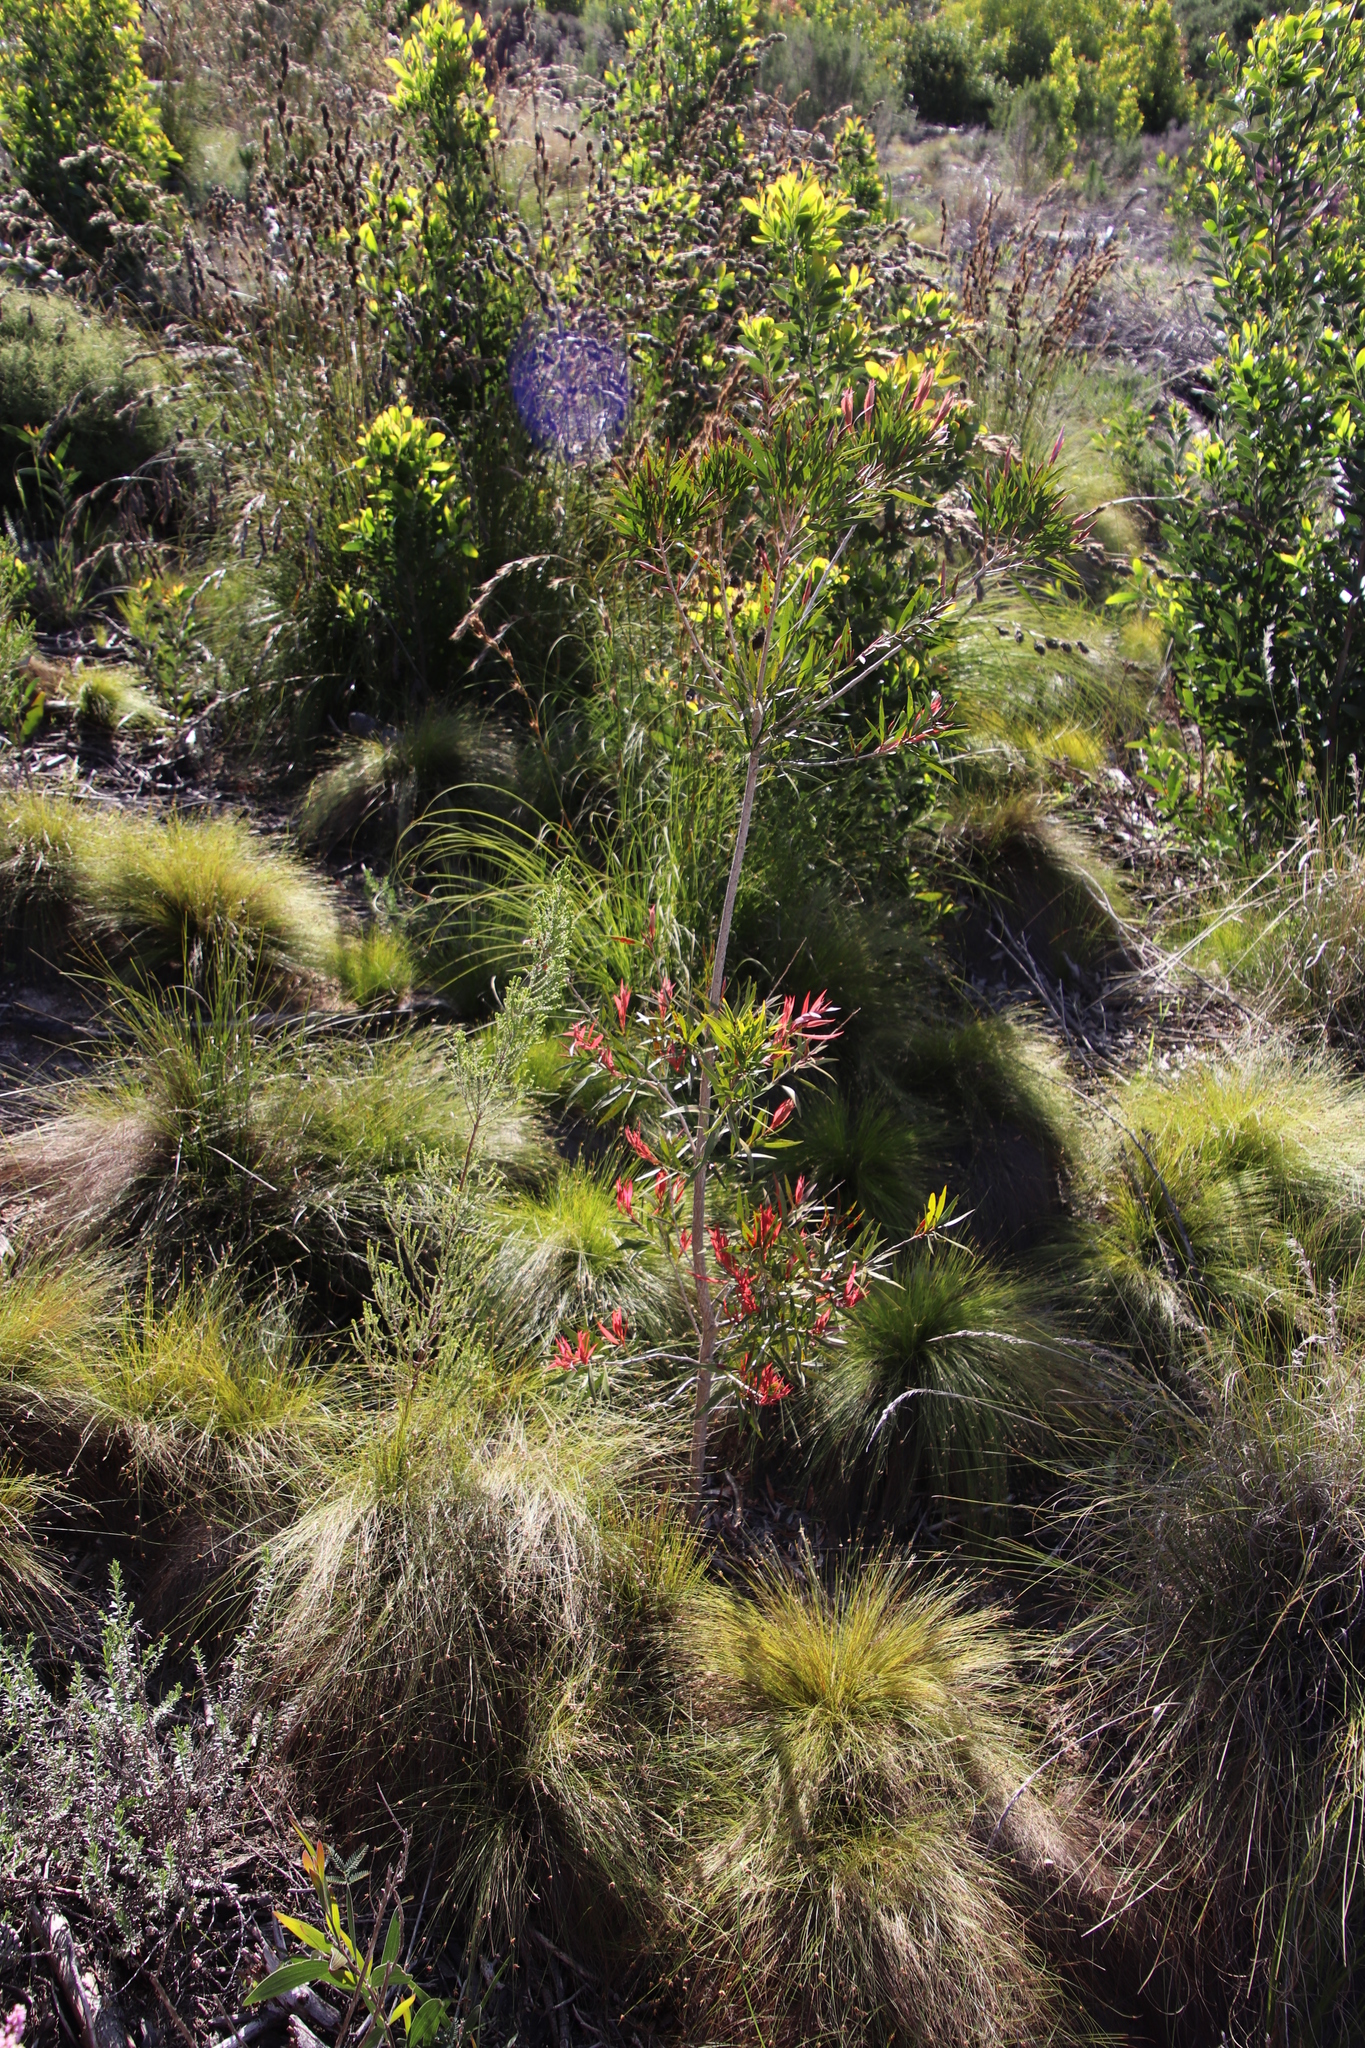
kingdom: Plantae
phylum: Tracheophyta
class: Magnoliopsida
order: Myrtales
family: Myrtaceae
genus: Melaleuca
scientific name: Melaleuca hypericifolia
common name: Red honey myrtle
